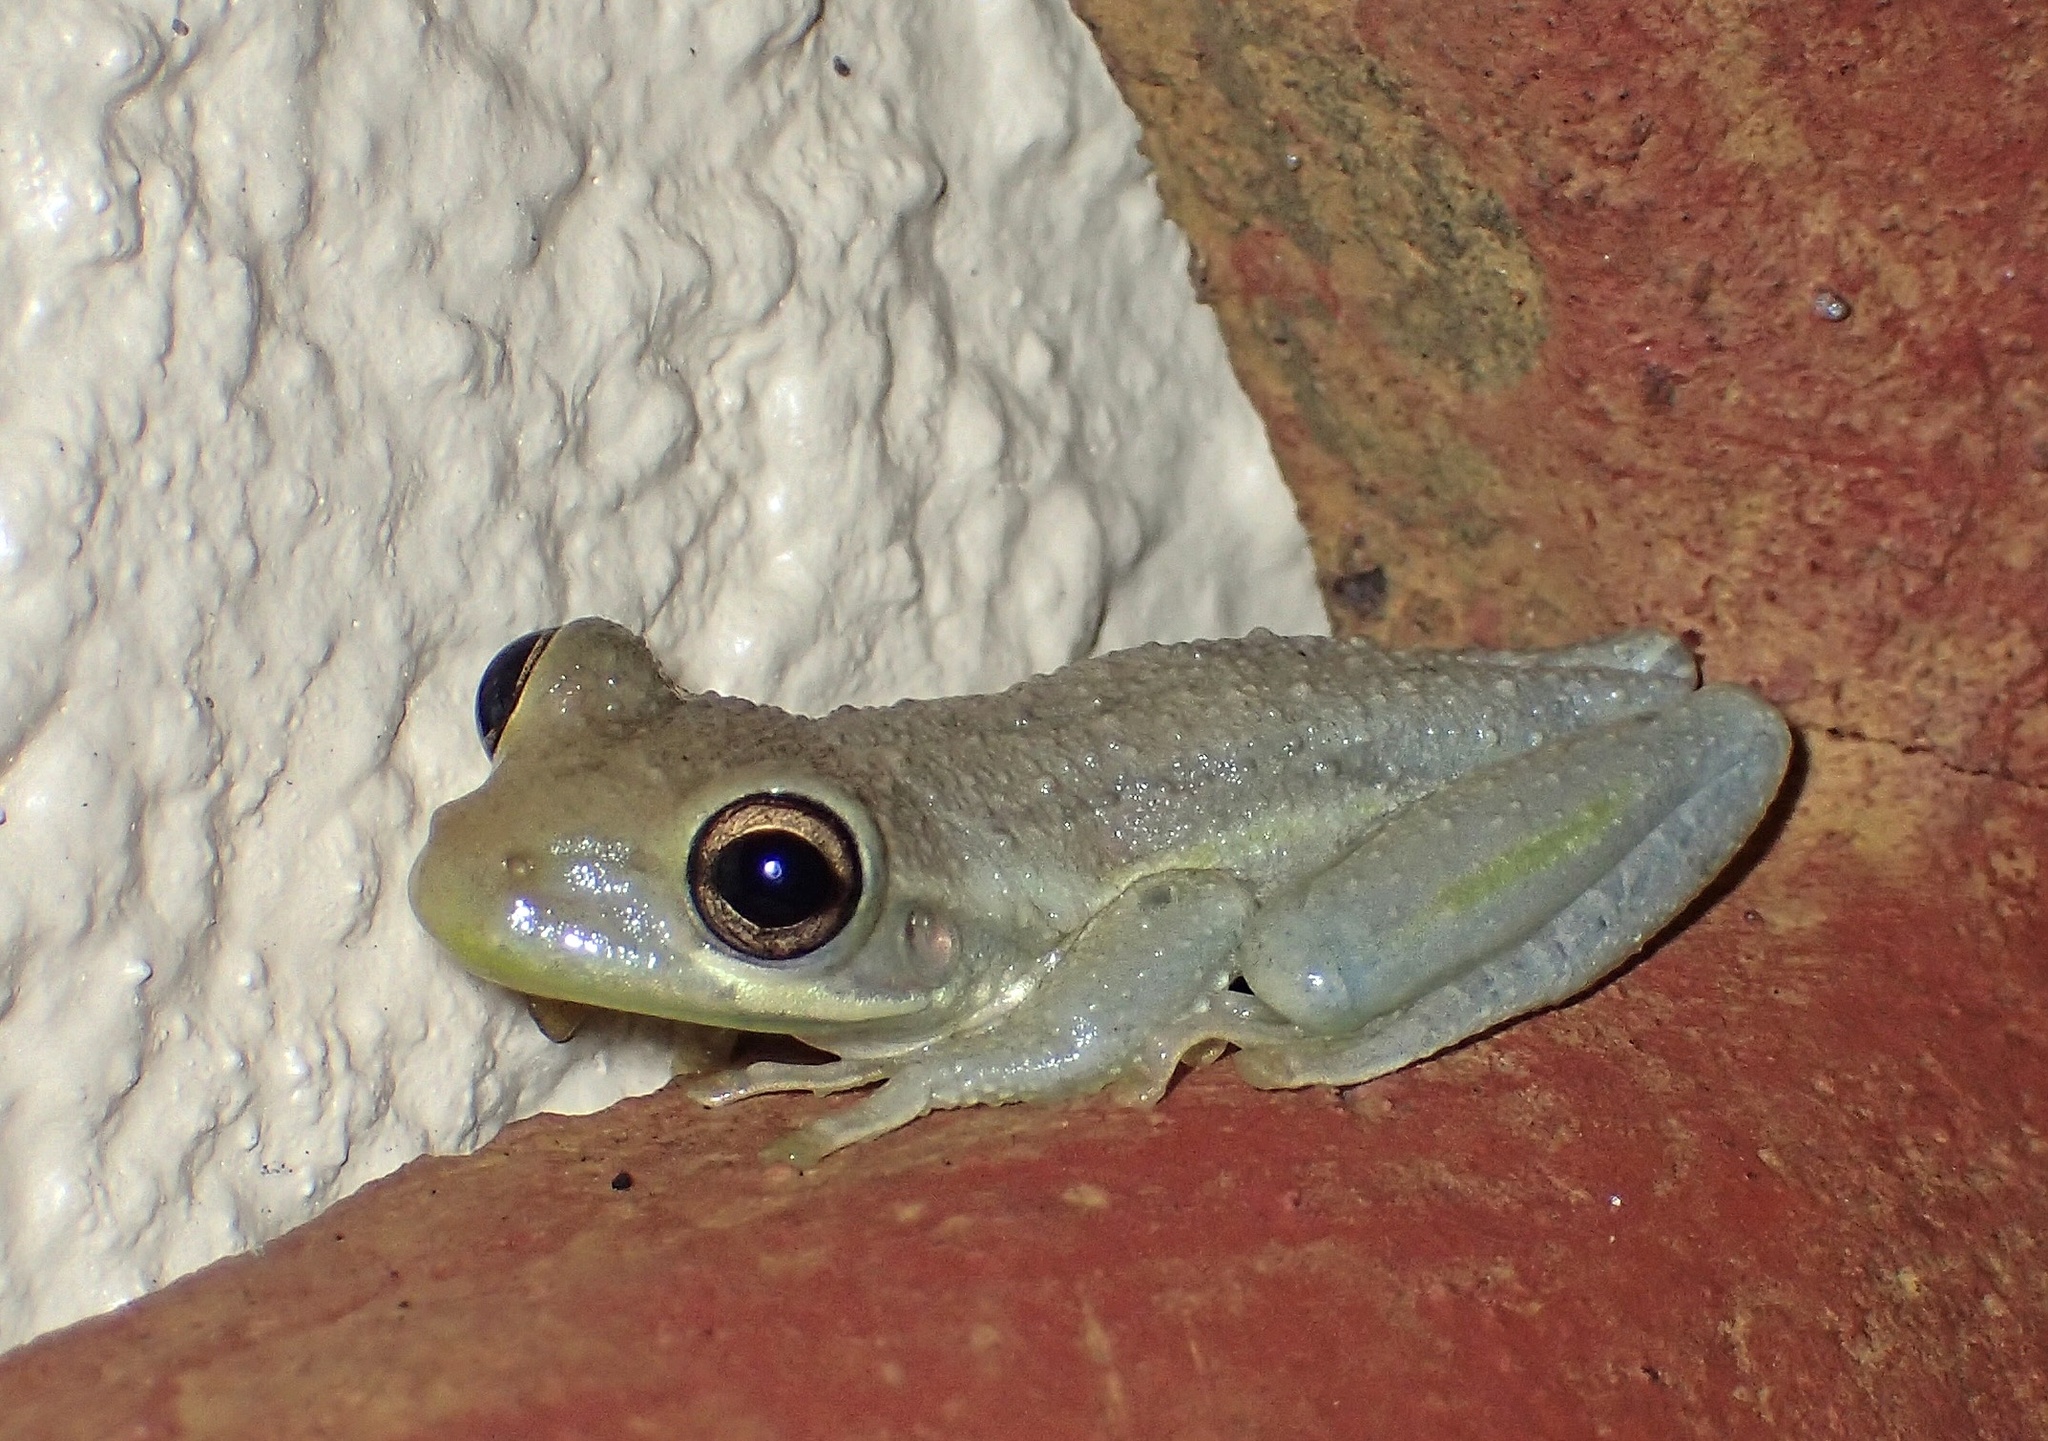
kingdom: Animalia
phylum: Chordata
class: Amphibia
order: Anura
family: Hylidae
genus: Osteopilus
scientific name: Osteopilus septentrionalis
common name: Cuban treefrog
